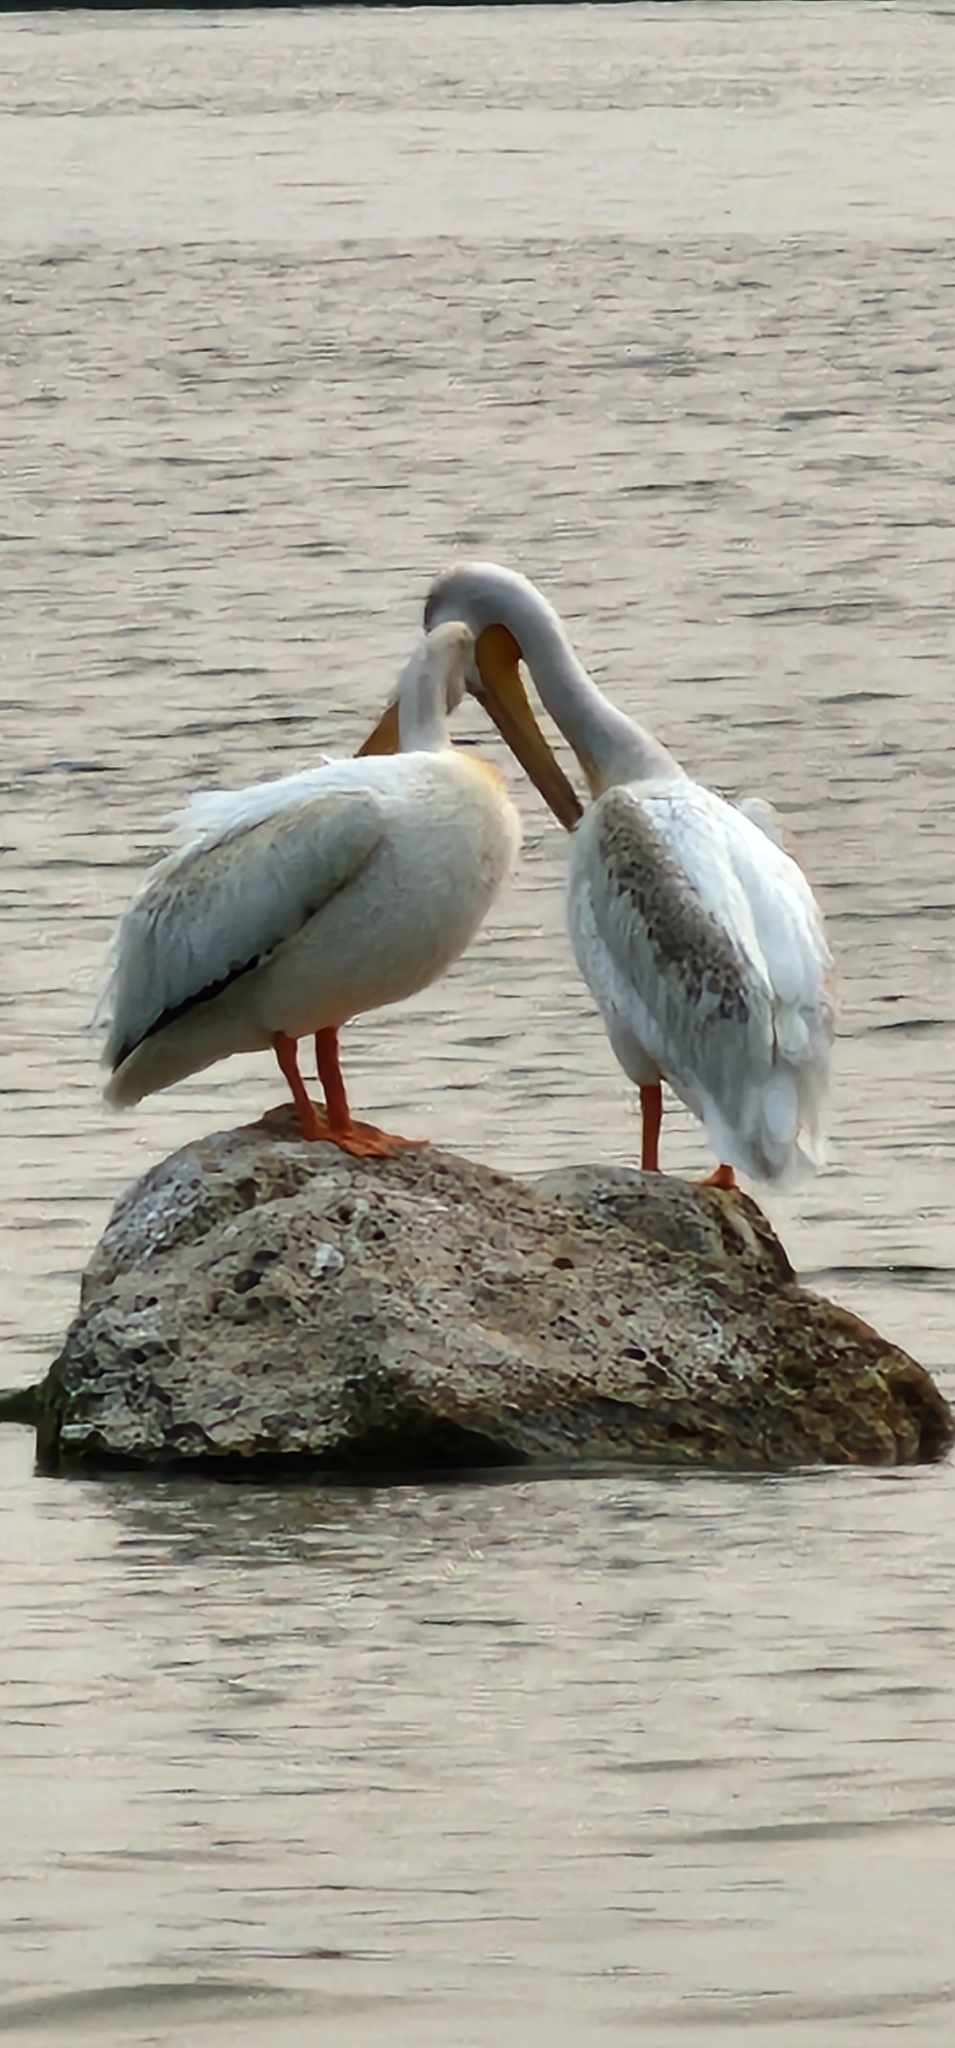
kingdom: Animalia
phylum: Chordata
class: Aves
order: Pelecaniformes
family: Pelecanidae
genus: Pelecanus
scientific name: Pelecanus erythrorhynchos
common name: American white pelican
